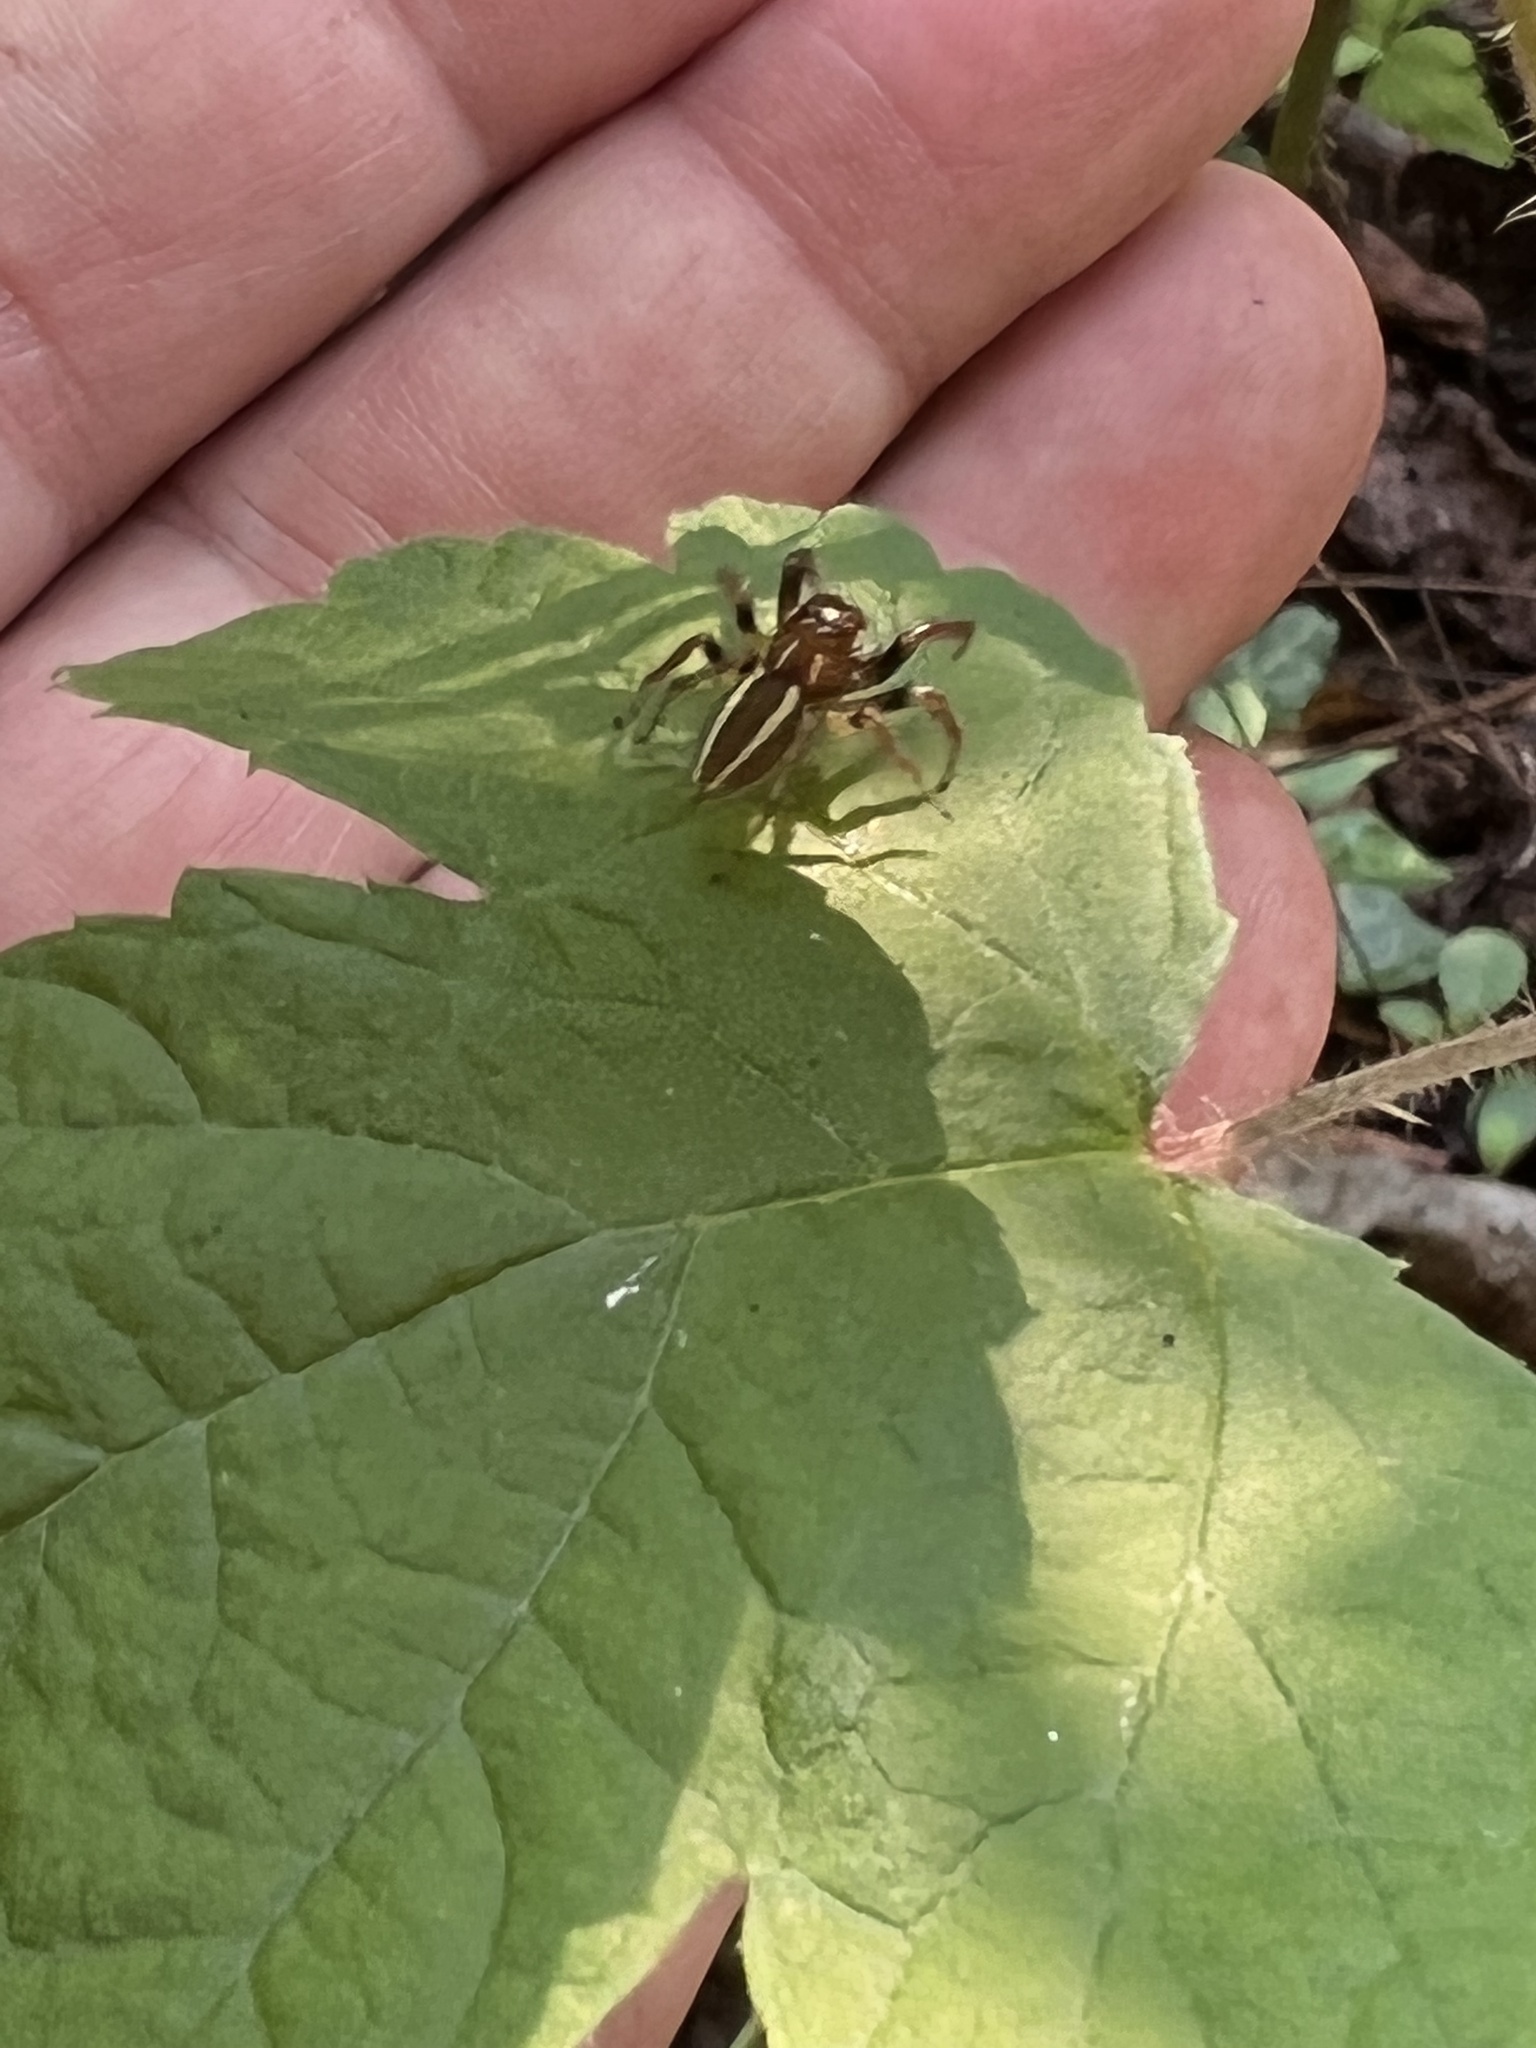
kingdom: Animalia
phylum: Arthropoda
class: Arachnida
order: Araneae
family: Salticidae
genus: Colonus
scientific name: Colonus sylvanus
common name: Jumping spiders
